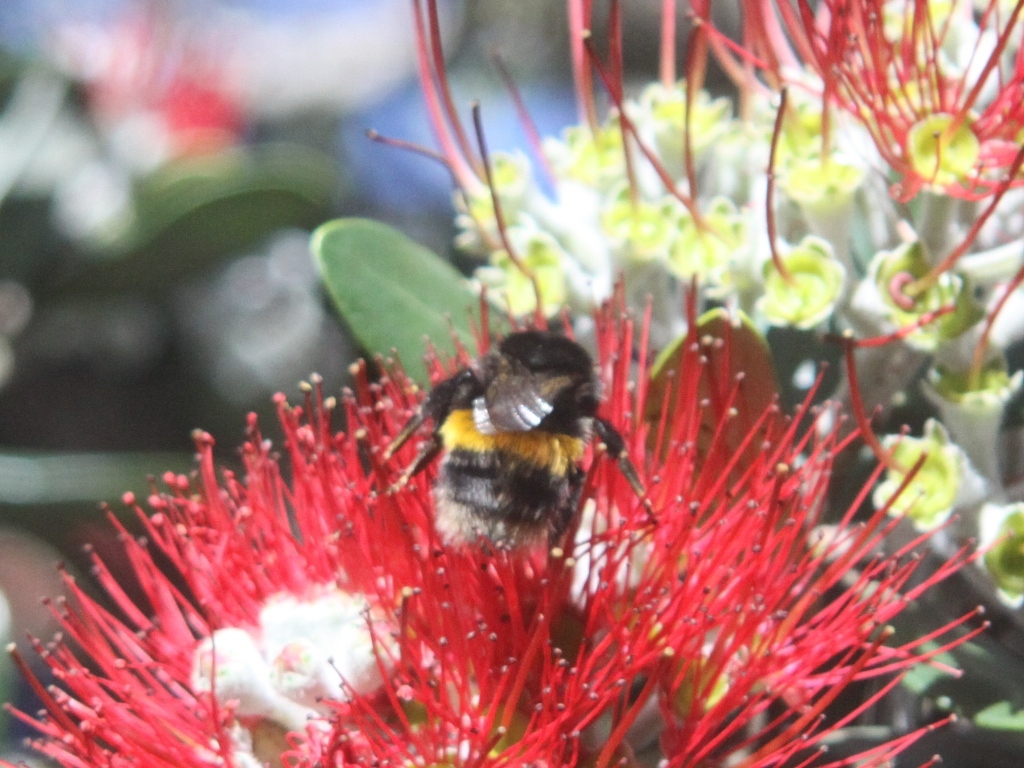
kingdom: Animalia
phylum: Arthropoda
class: Insecta
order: Hymenoptera
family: Apidae
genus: Bombus
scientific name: Bombus terrestris
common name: Buff-tailed bumblebee
